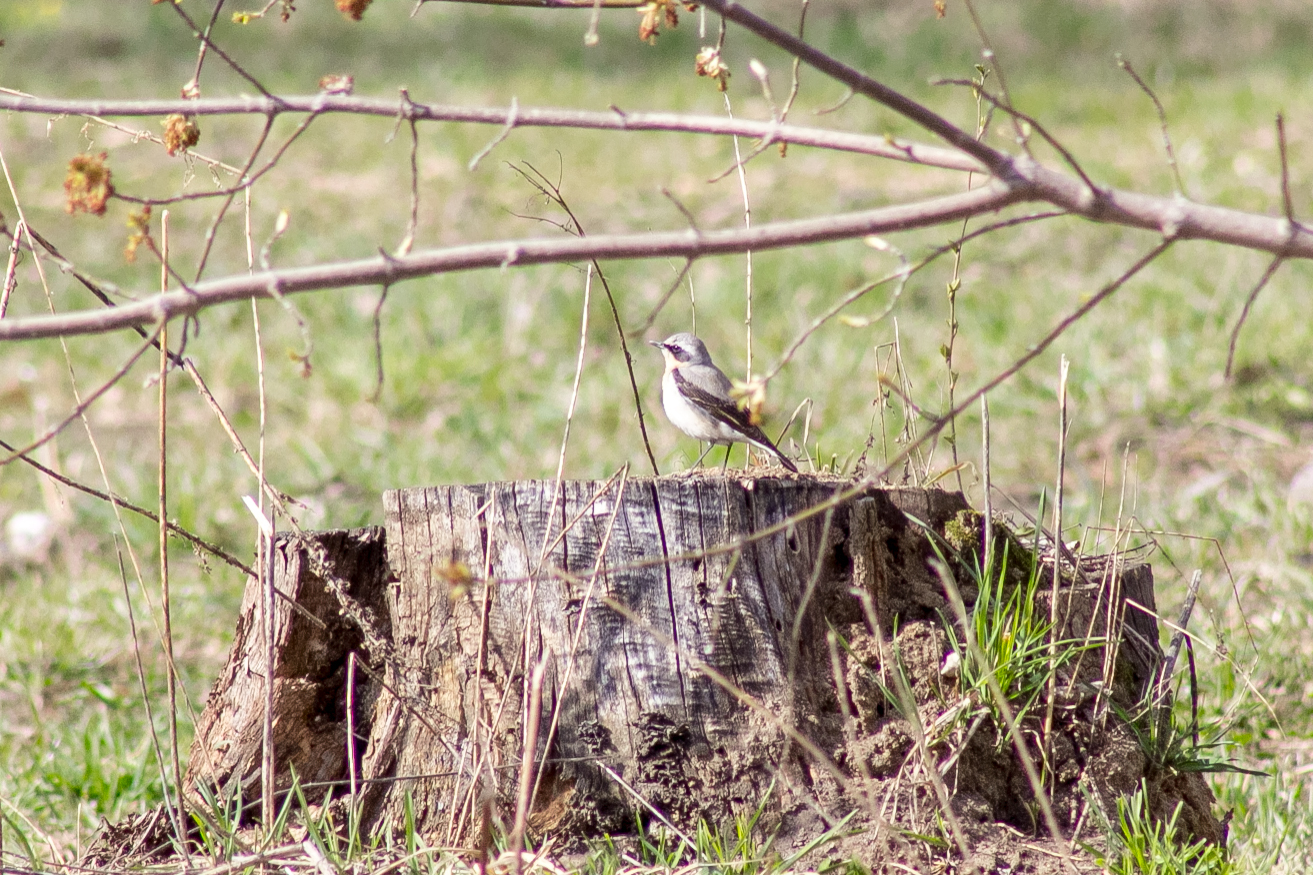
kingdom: Animalia
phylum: Chordata
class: Aves
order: Passeriformes
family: Muscicapidae
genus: Oenanthe
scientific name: Oenanthe oenanthe
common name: Northern wheatear
